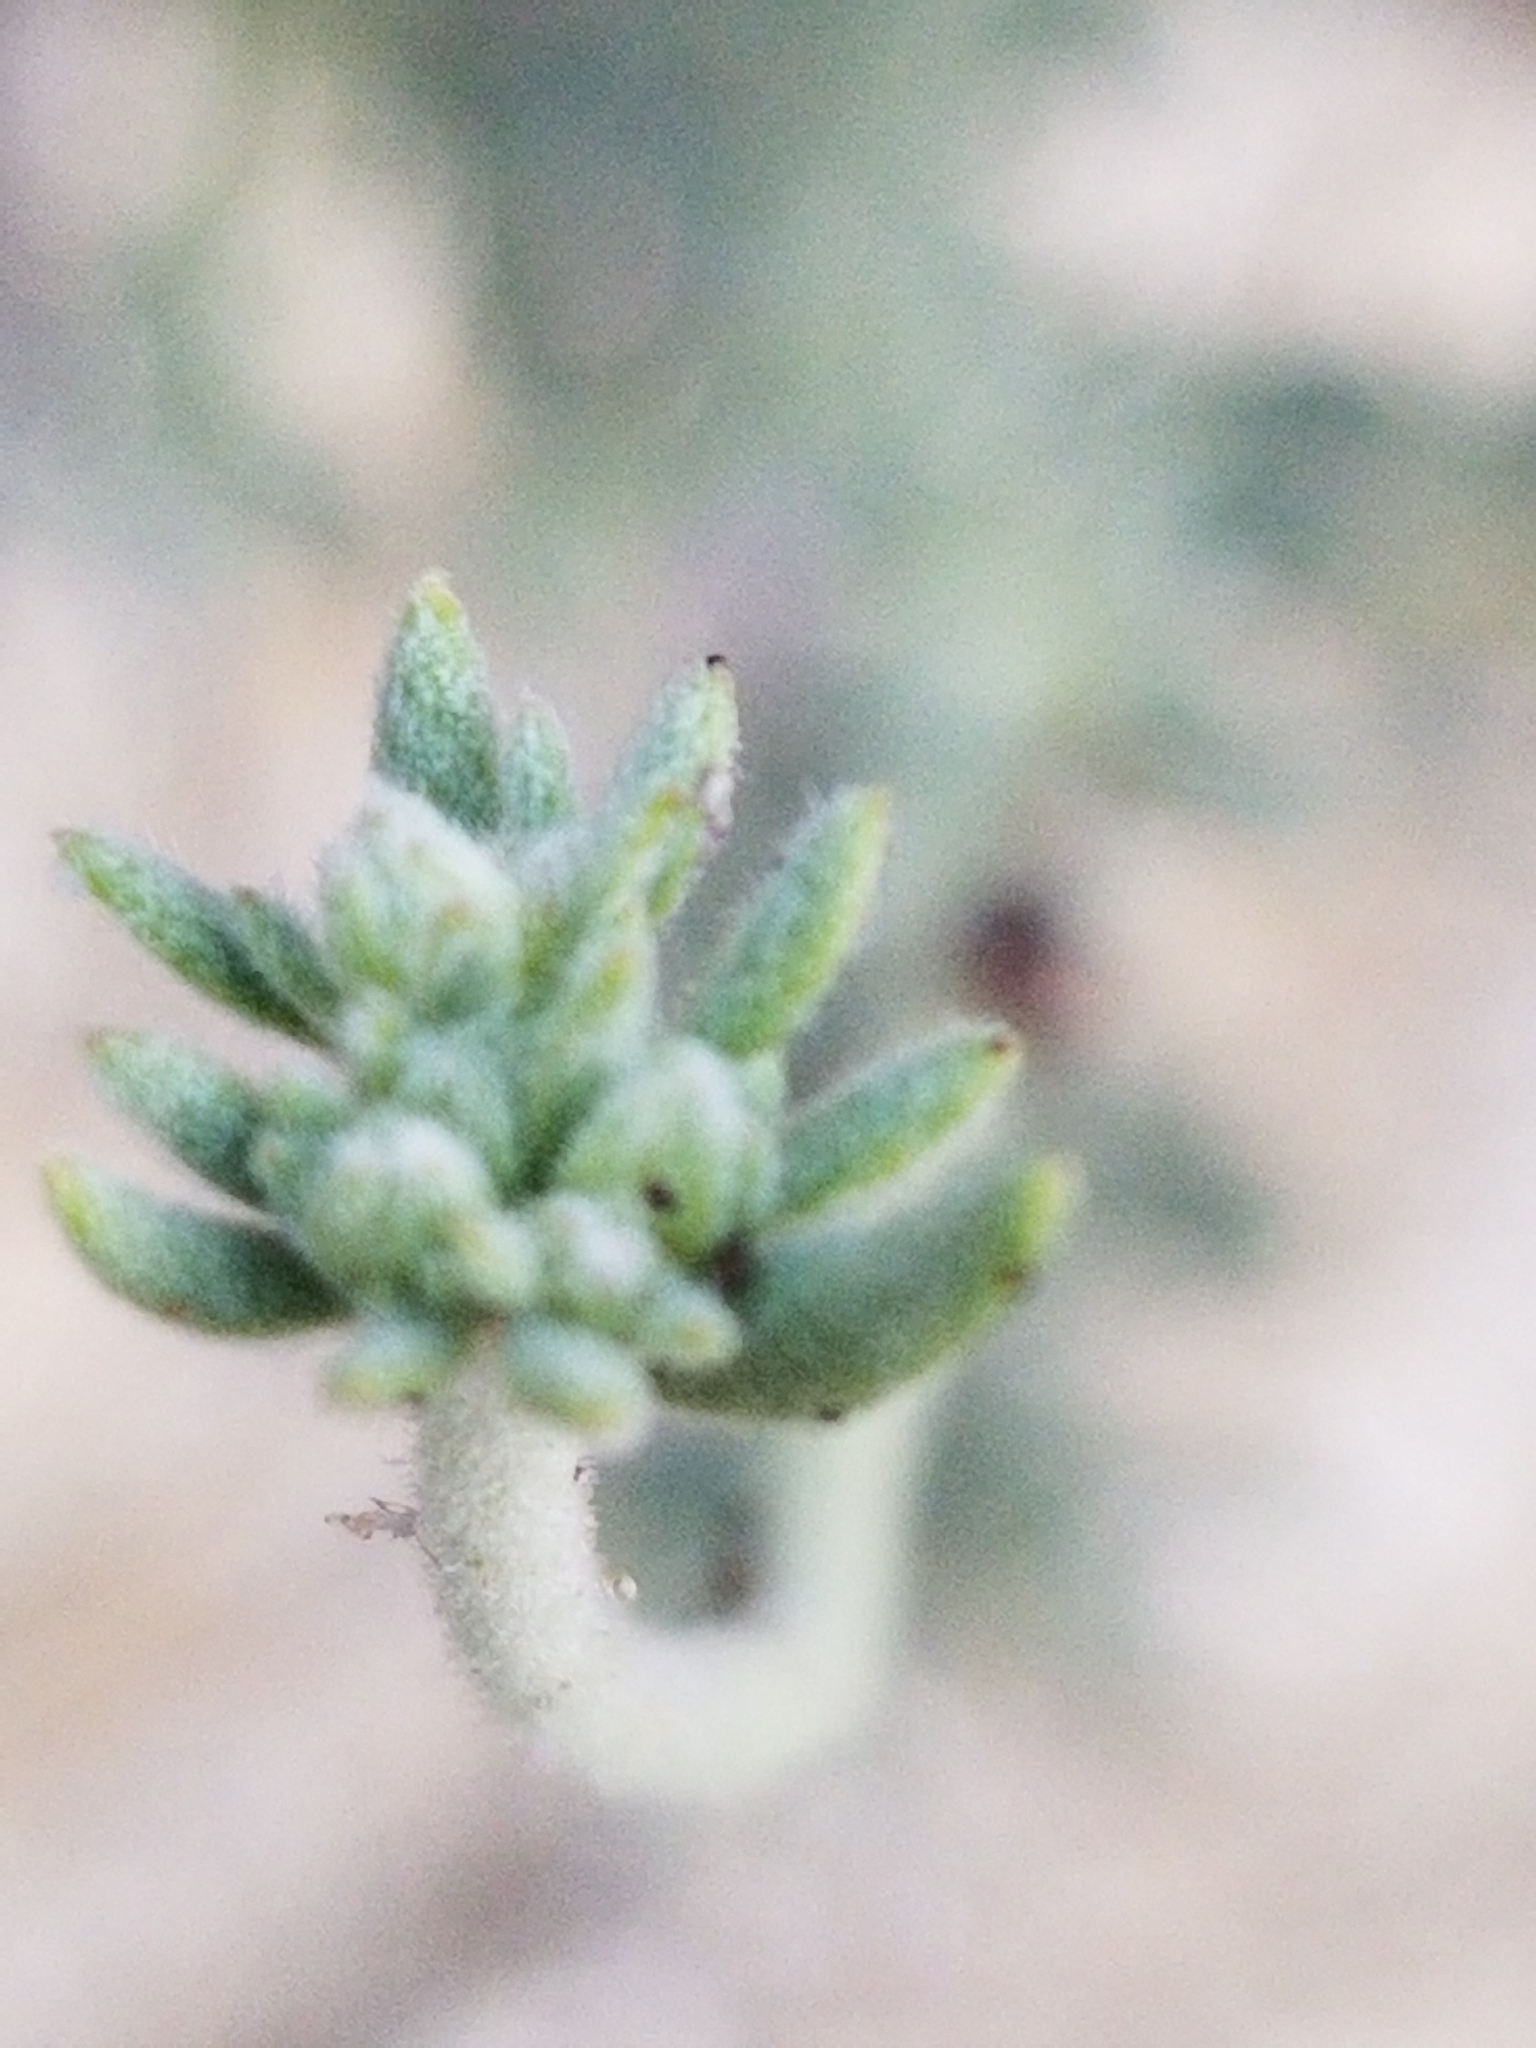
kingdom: Plantae
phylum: Tracheophyta
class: Magnoliopsida
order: Caryophyllales
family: Polygonaceae
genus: Eriogonum
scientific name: Eriogonum fasciculatum
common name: California wild buckwheat
